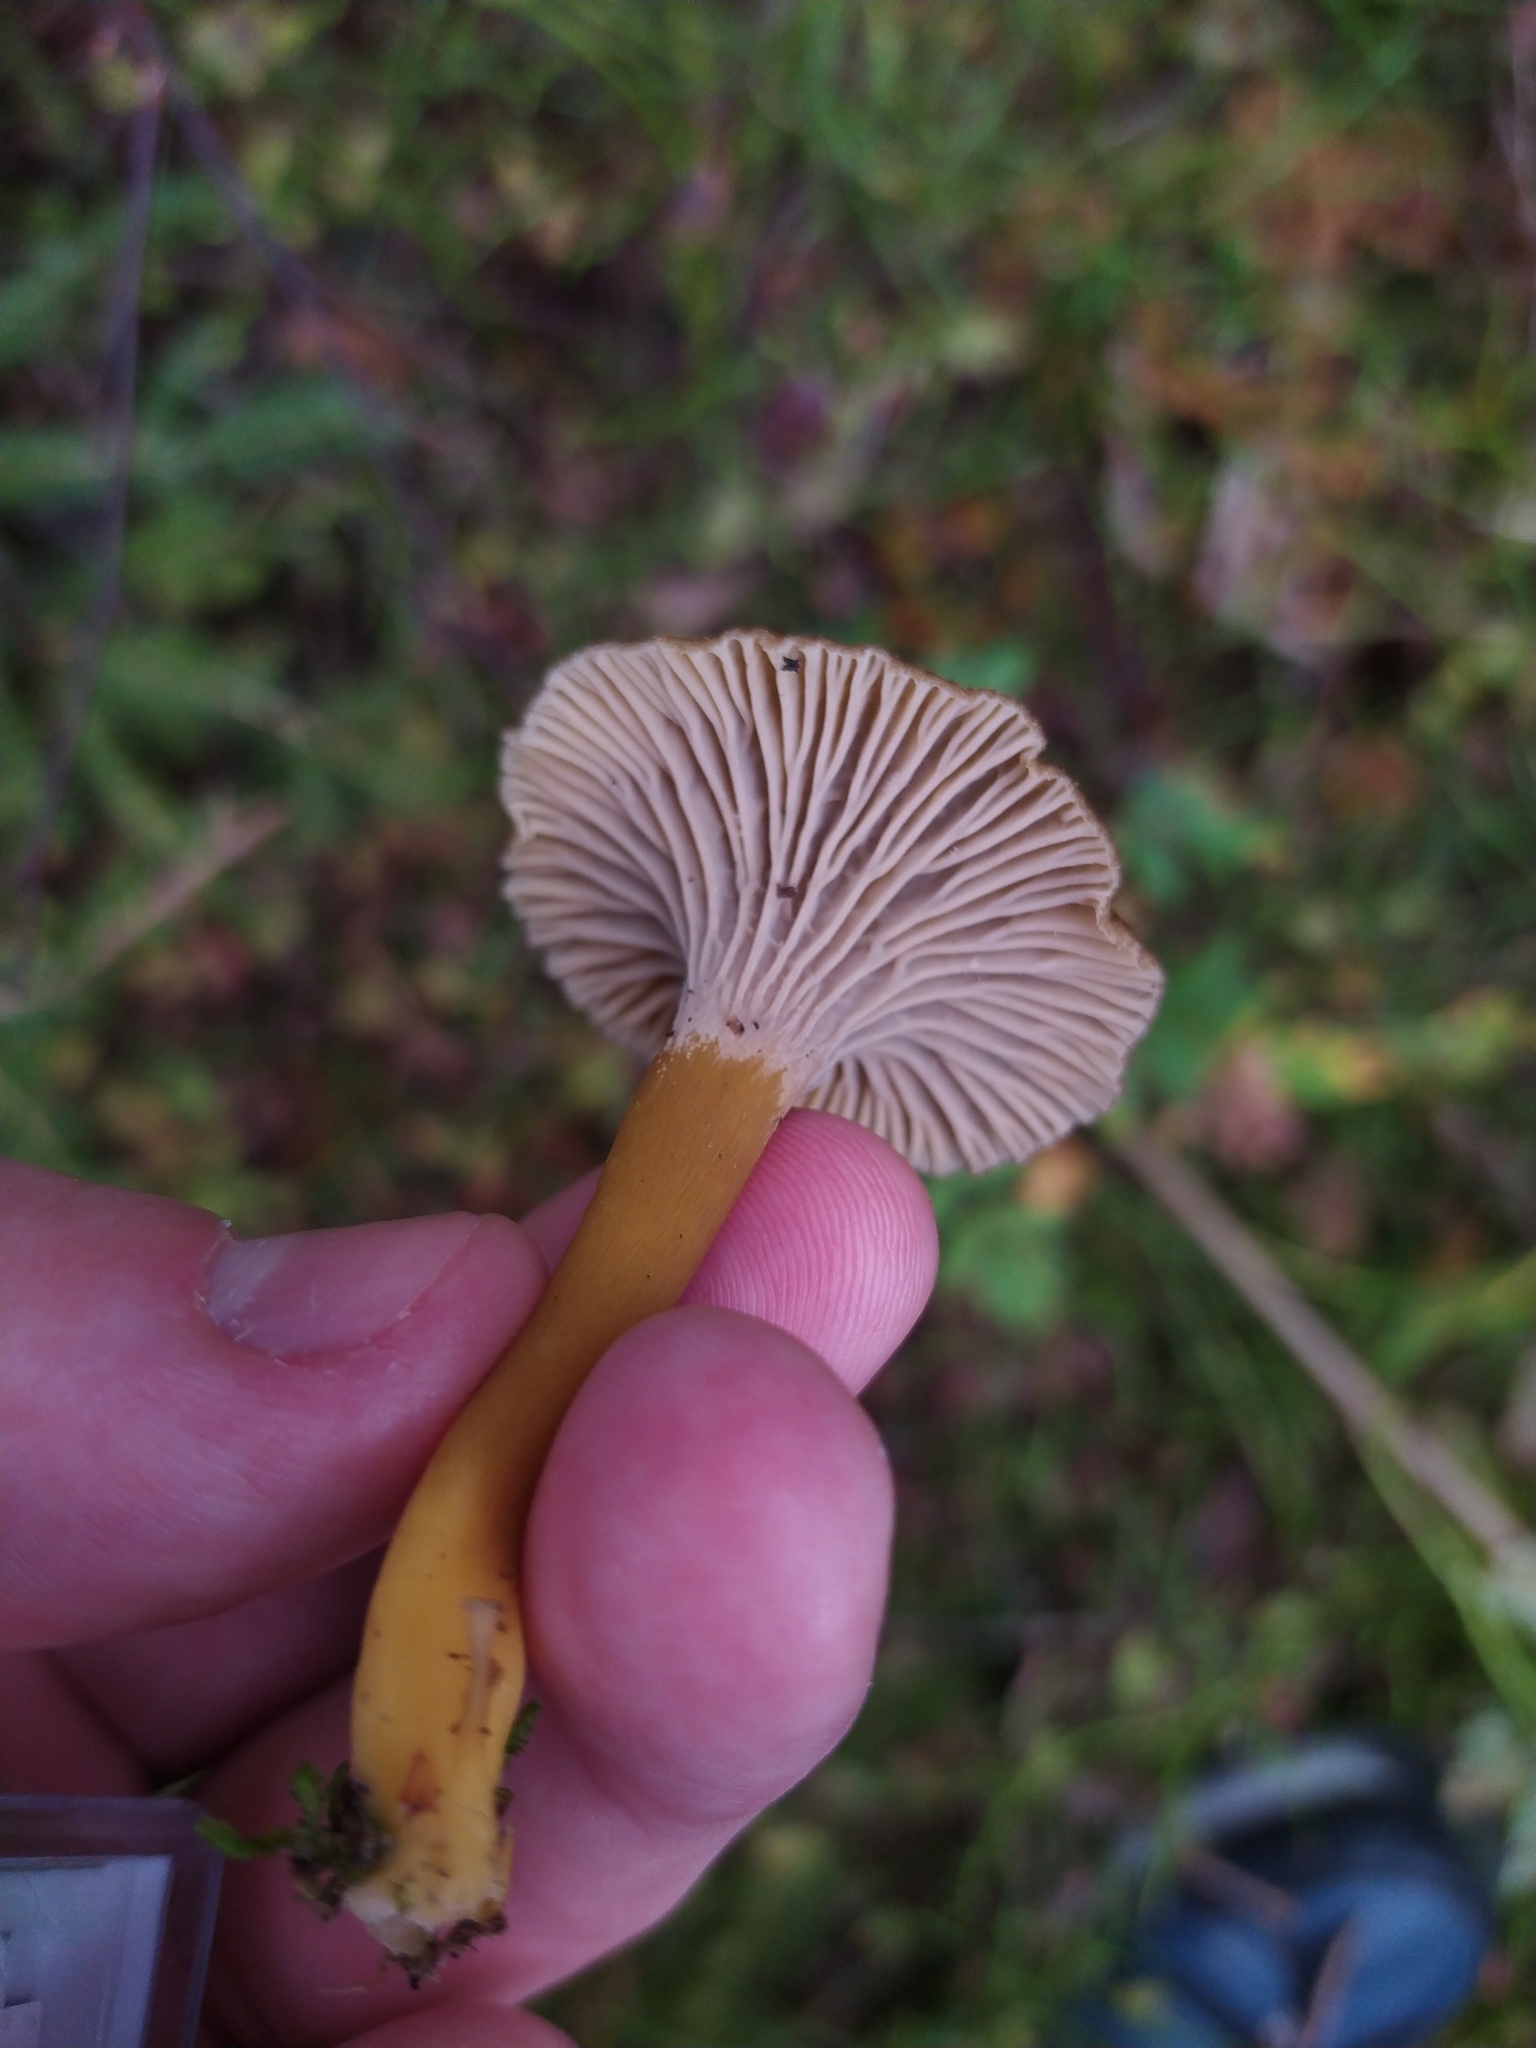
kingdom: Fungi
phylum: Basidiomycota
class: Agaricomycetes
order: Cantharellales
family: Hydnaceae
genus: Craterellus
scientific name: Craterellus tubaeformis
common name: Yellowfoot
